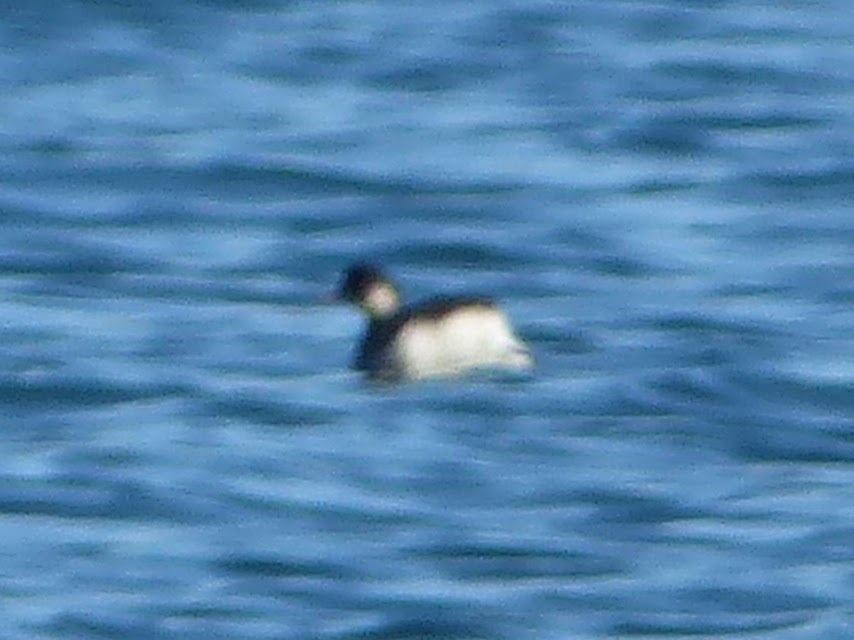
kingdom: Animalia
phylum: Chordata
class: Aves
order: Podicipediformes
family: Podicipedidae
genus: Podiceps
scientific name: Podiceps nigricollis
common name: Black-necked grebe
